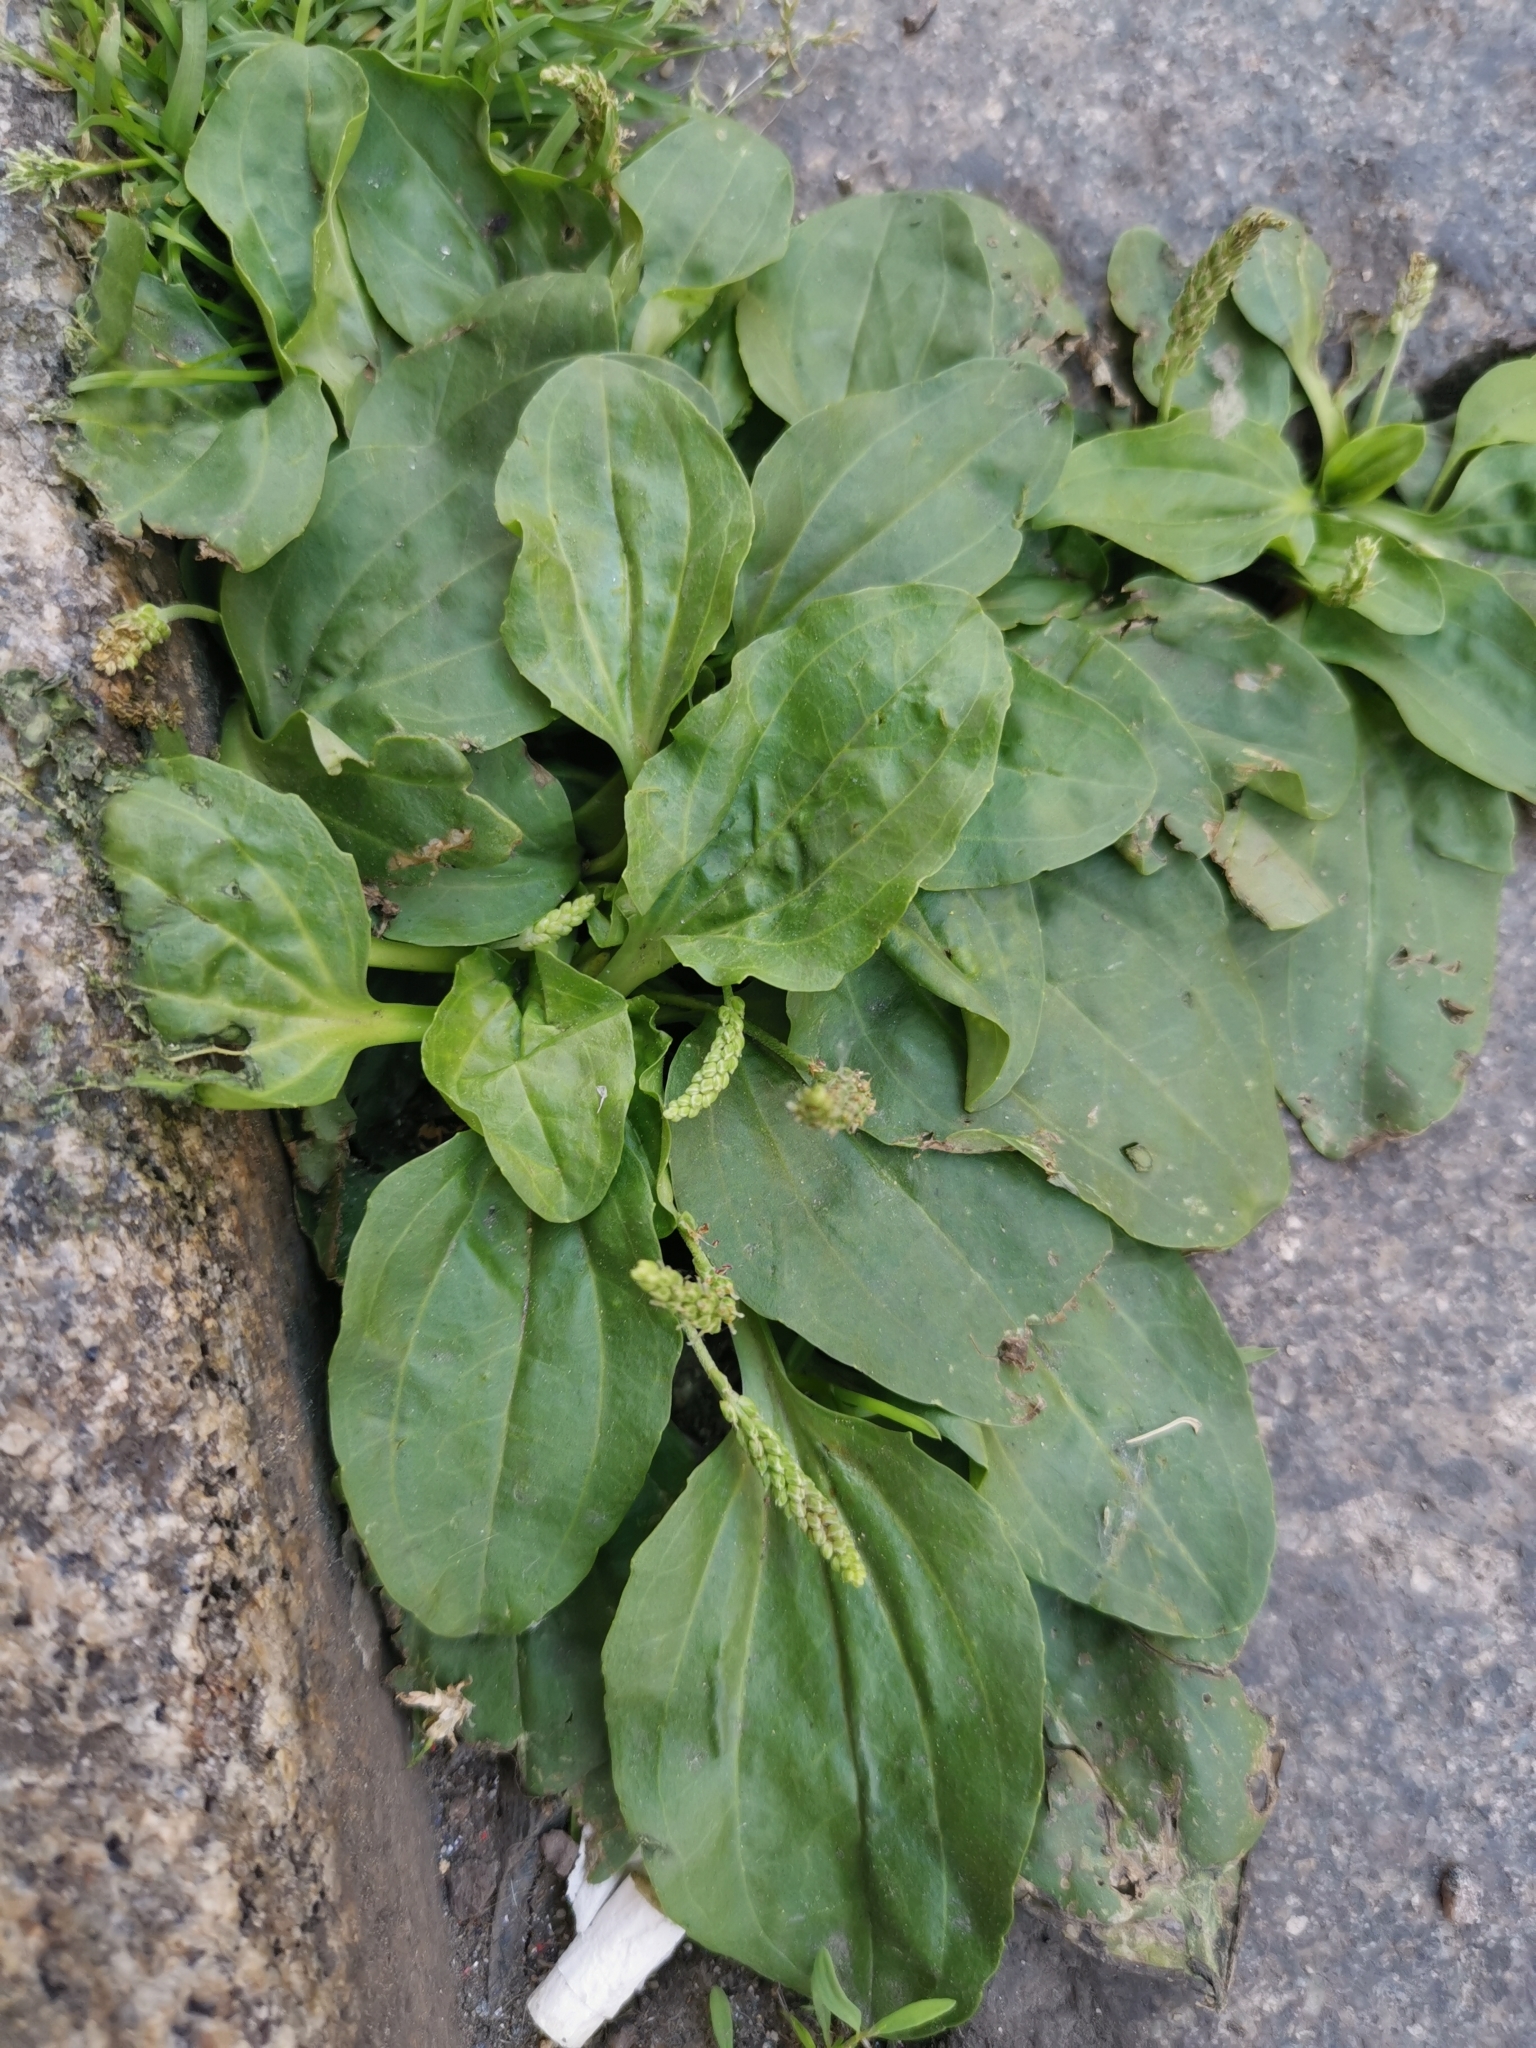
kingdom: Plantae
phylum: Tracheophyta
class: Magnoliopsida
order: Lamiales
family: Plantaginaceae
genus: Plantago
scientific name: Plantago major
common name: Common plantain
